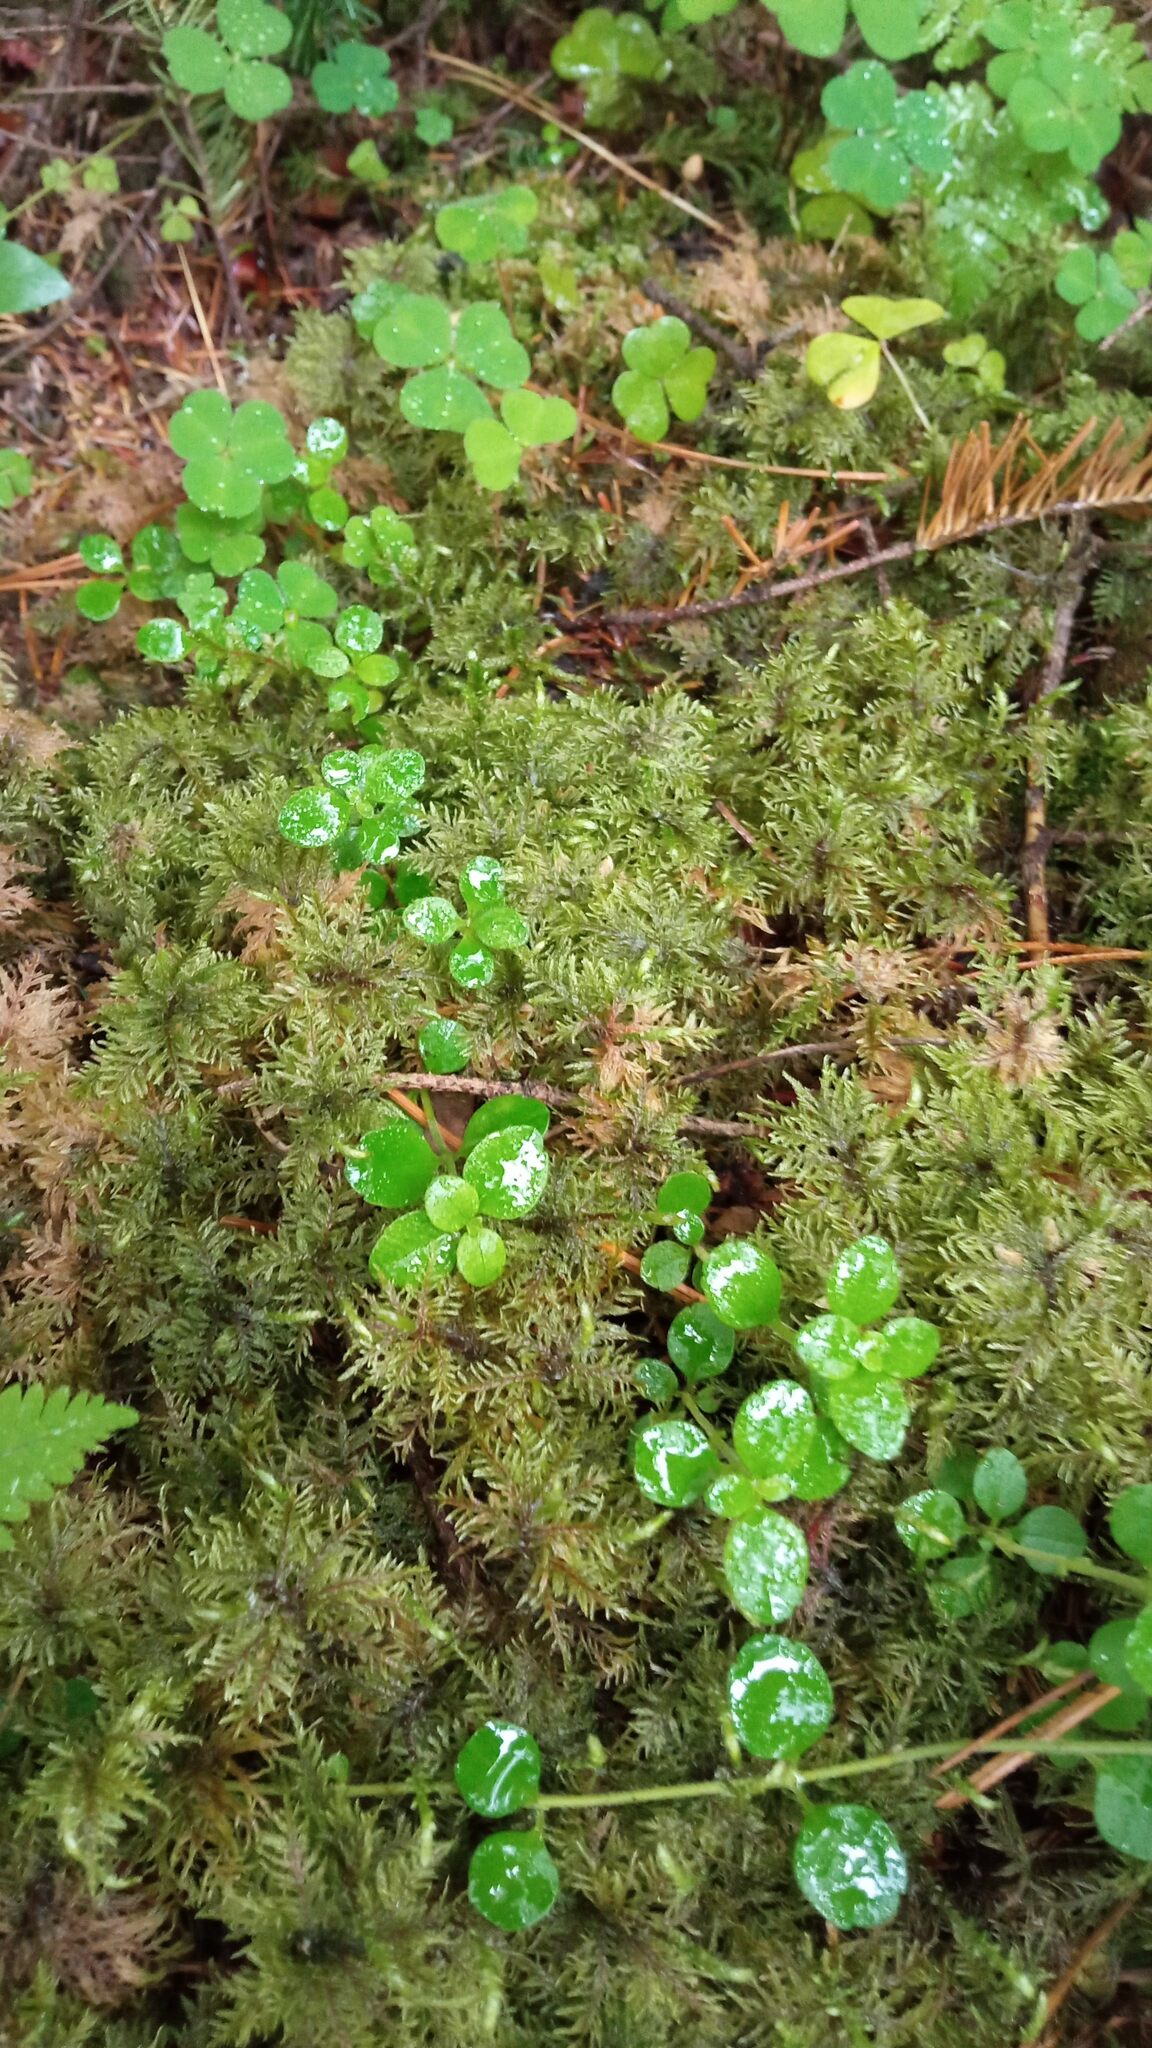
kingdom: Plantae
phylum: Bryophyta
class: Bryopsida
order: Hypnales
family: Hylocomiaceae
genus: Hylocomium
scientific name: Hylocomium splendens
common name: Stairstep moss
